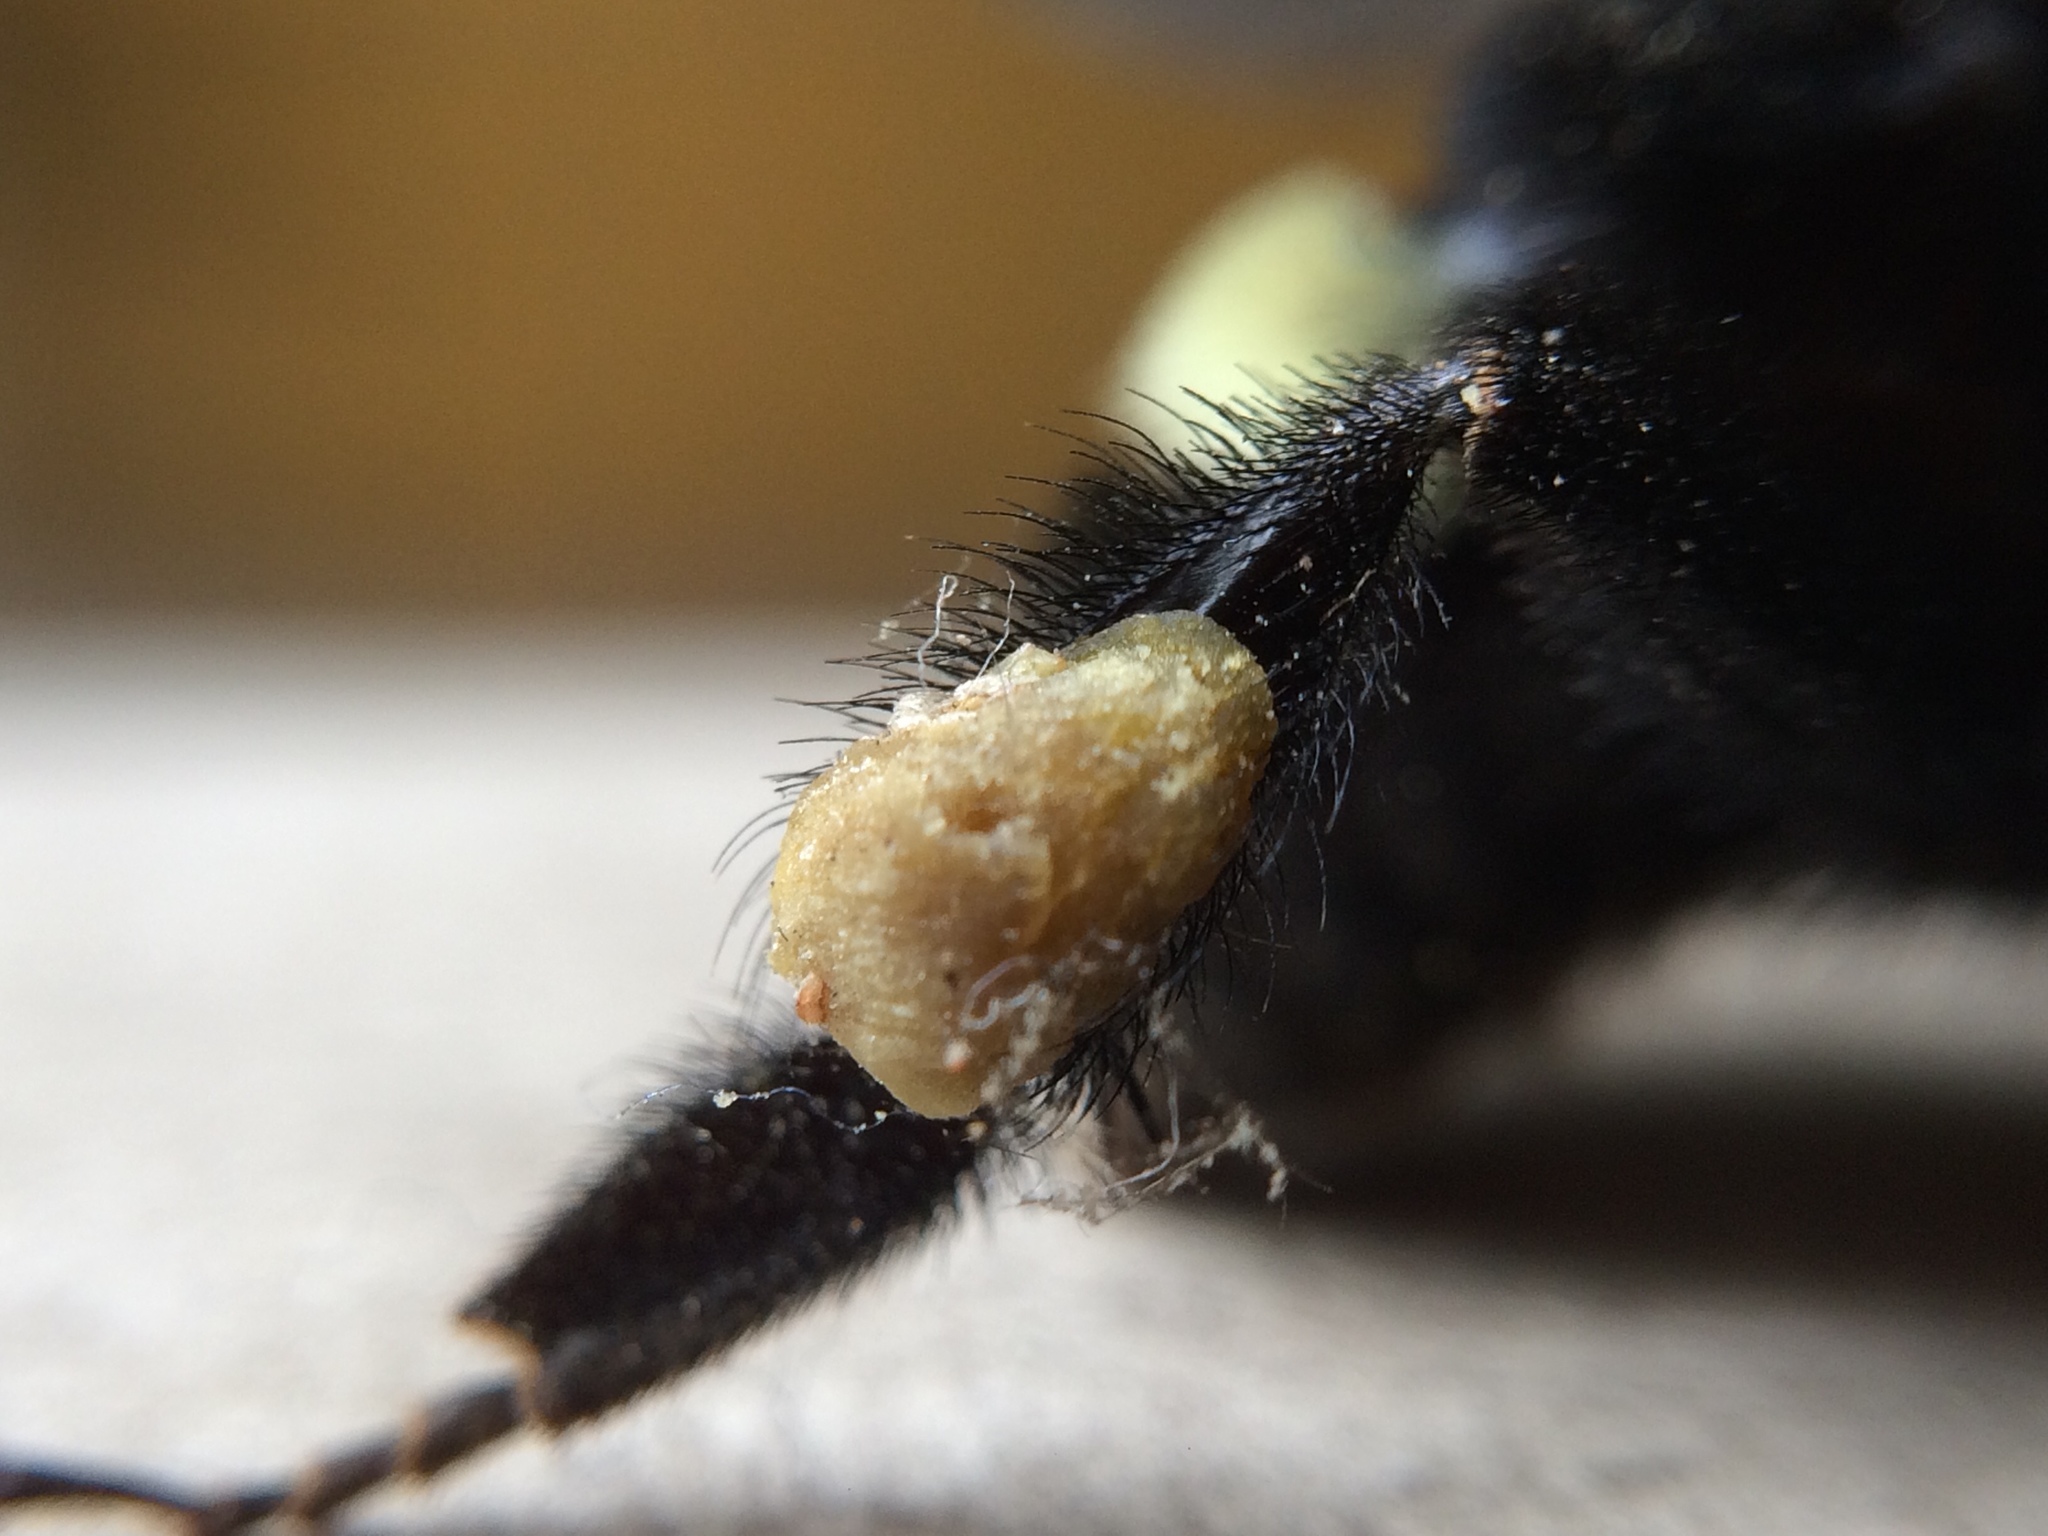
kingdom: Animalia
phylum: Arthropoda
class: Insecta
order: Hymenoptera
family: Apidae
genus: Bombus
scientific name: Bombus medius
